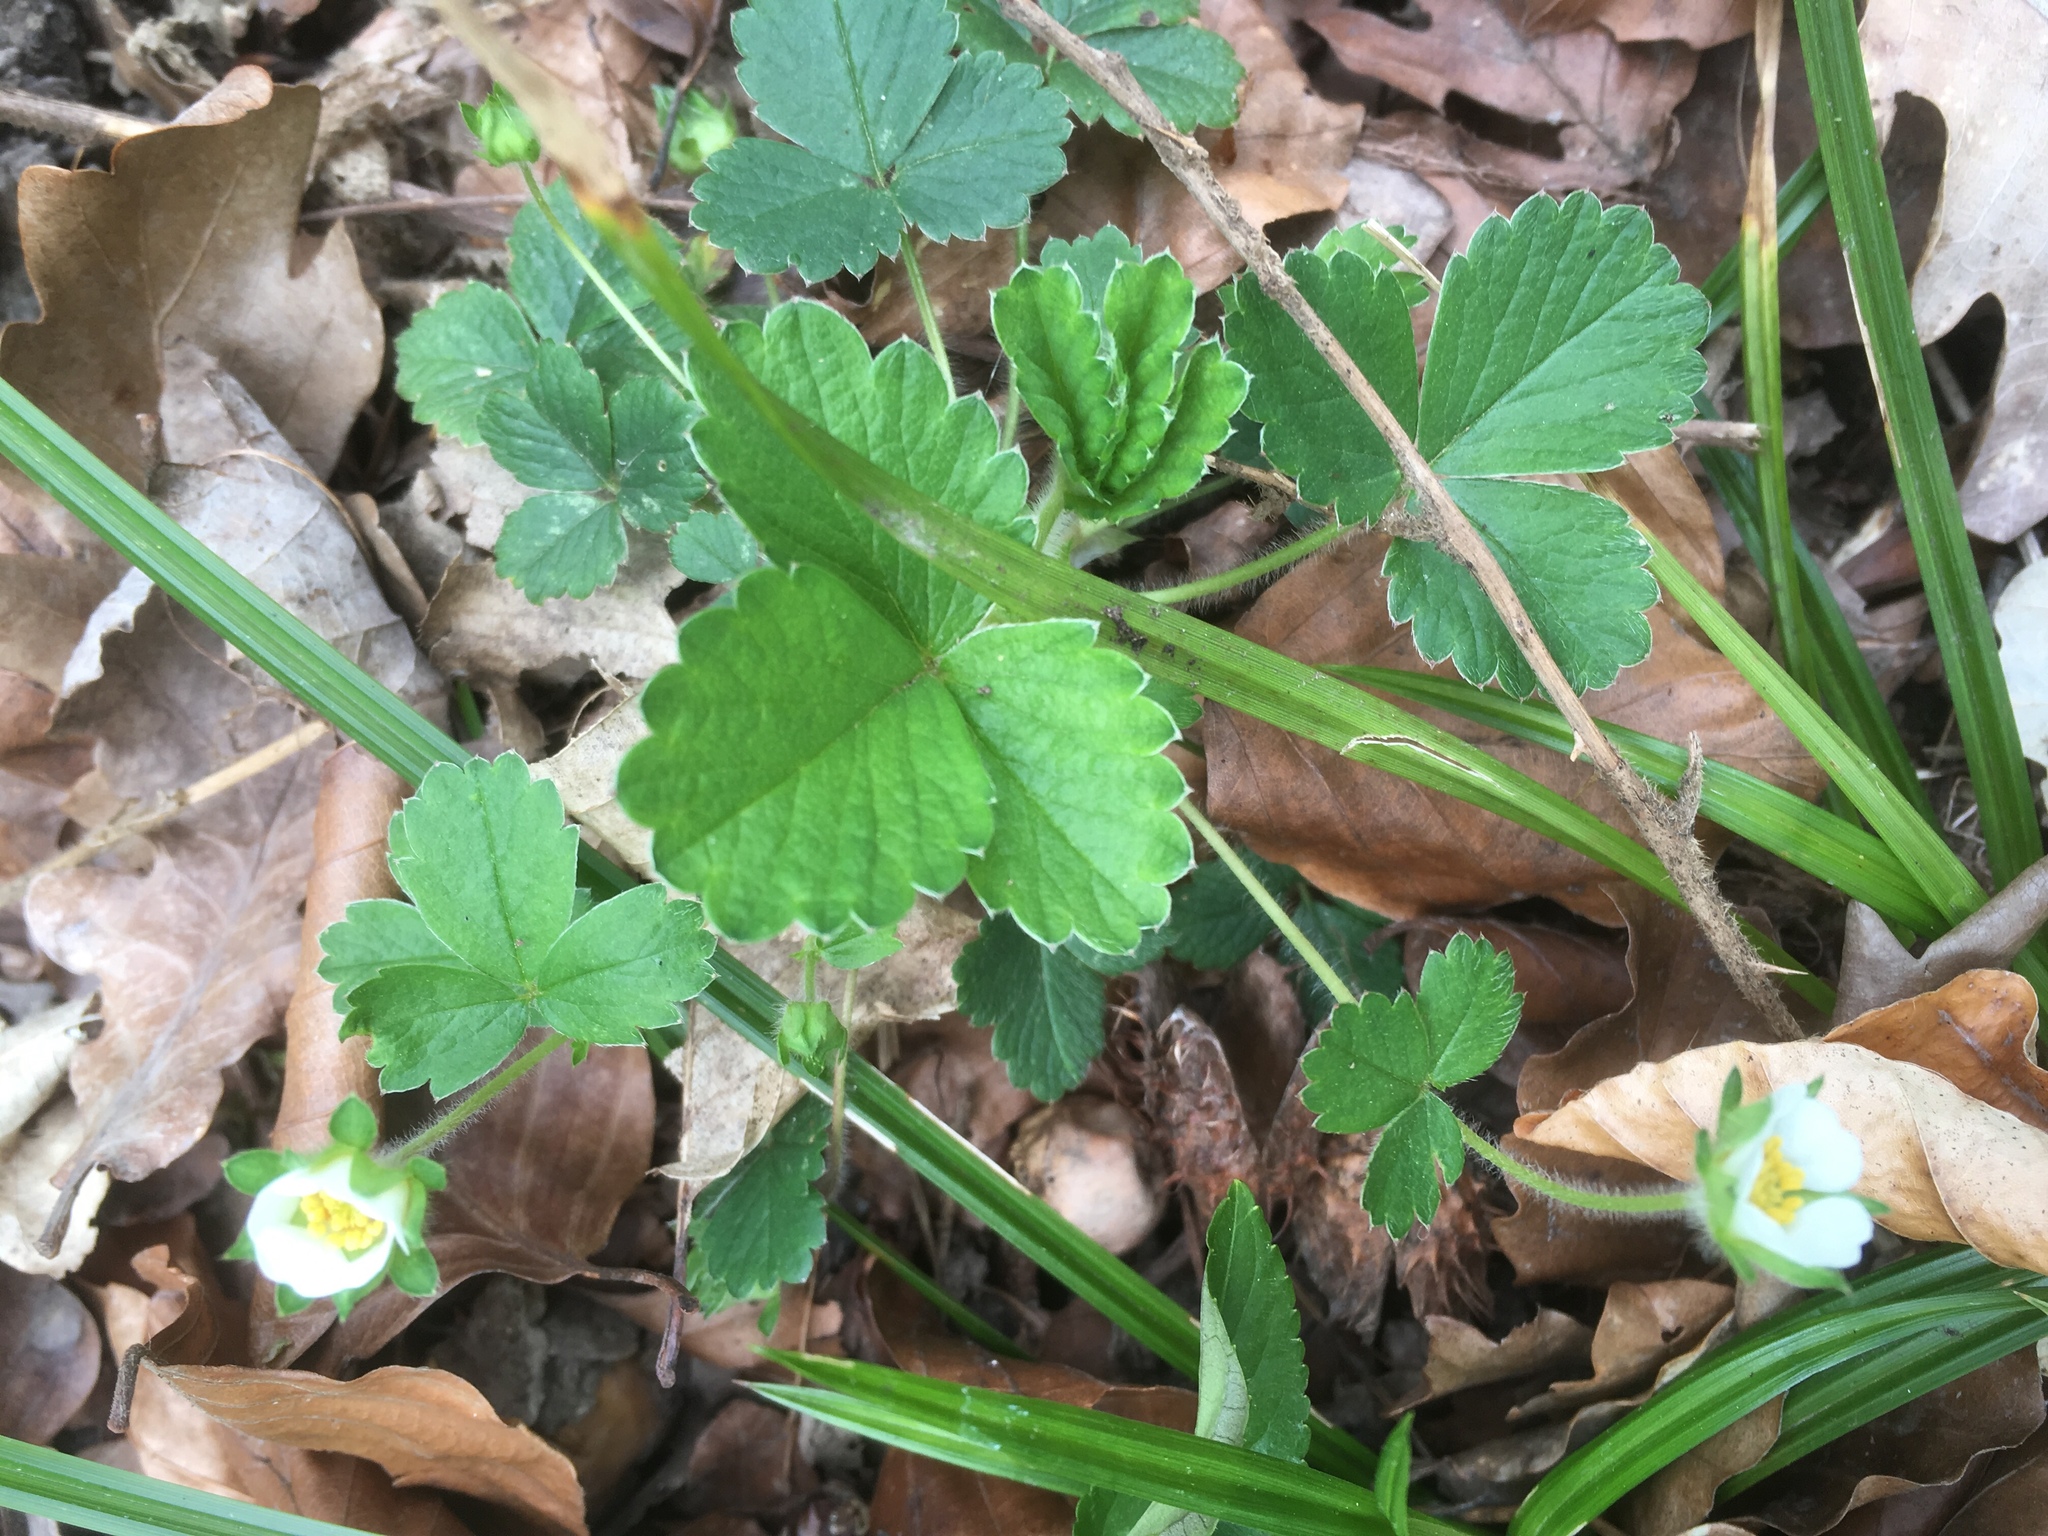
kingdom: Plantae
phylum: Tracheophyta
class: Magnoliopsida
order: Rosales
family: Rosaceae
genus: Potentilla
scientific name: Potentilla sterilis
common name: Barren strawberry
